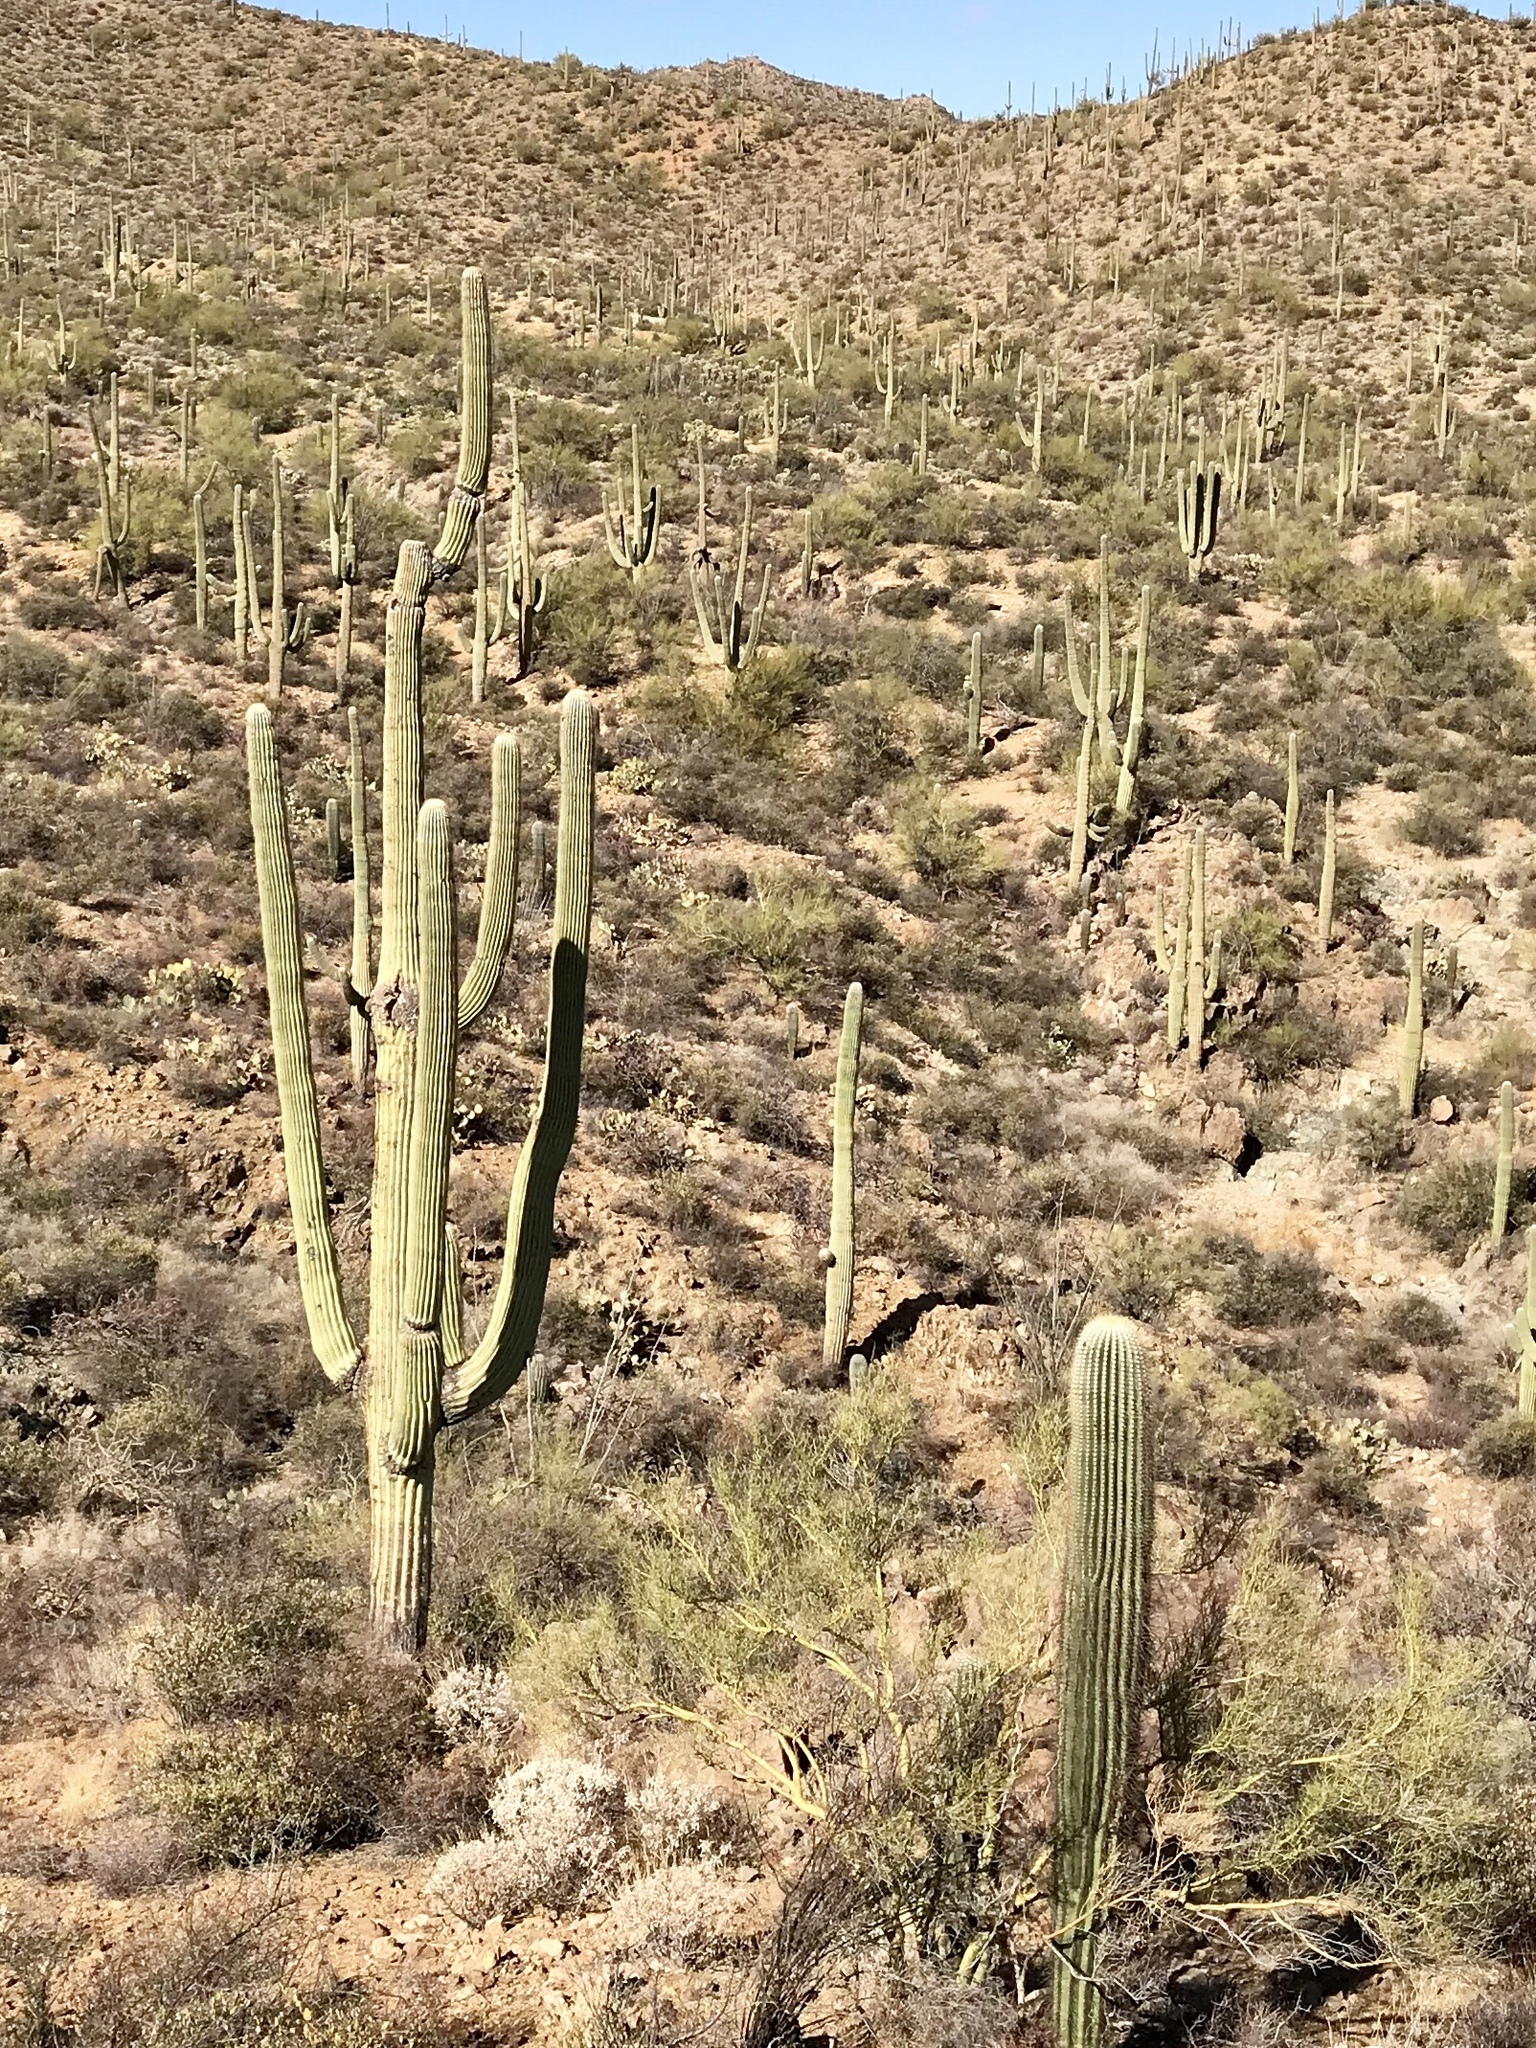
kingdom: Plantae
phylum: Tracheophyta
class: Magnoliopsida
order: Caryophyllales
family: Cactaceae
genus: Carnegiea
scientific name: Carnegiea gigantea
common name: Saguaro
